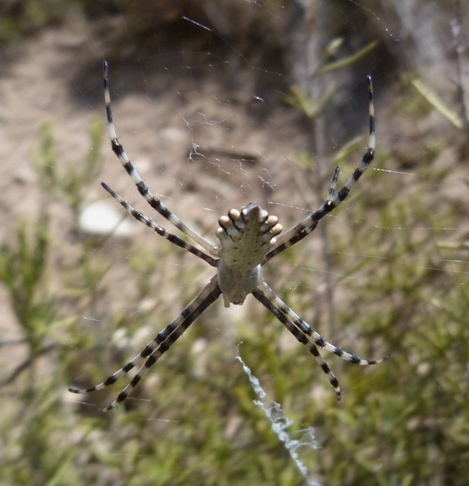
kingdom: Animalia
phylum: Arthropoda
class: Arachnida
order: Araneae
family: Araneidae
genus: Argiope
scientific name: Argiope lobata
